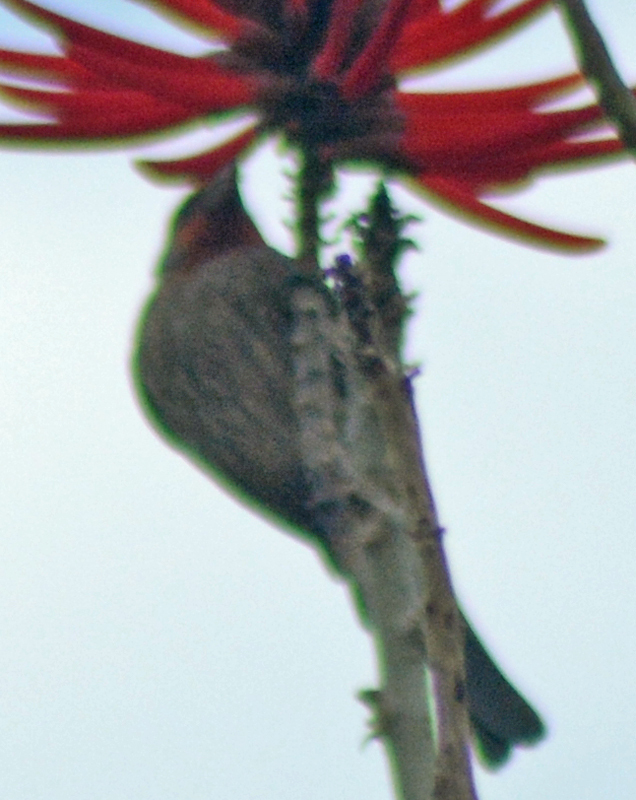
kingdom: Animalia
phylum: Chordata
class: Aves
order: Passeriformes
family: Fringillidae
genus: Haemorhous
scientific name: Haemorhous mexicanus
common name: House finch
